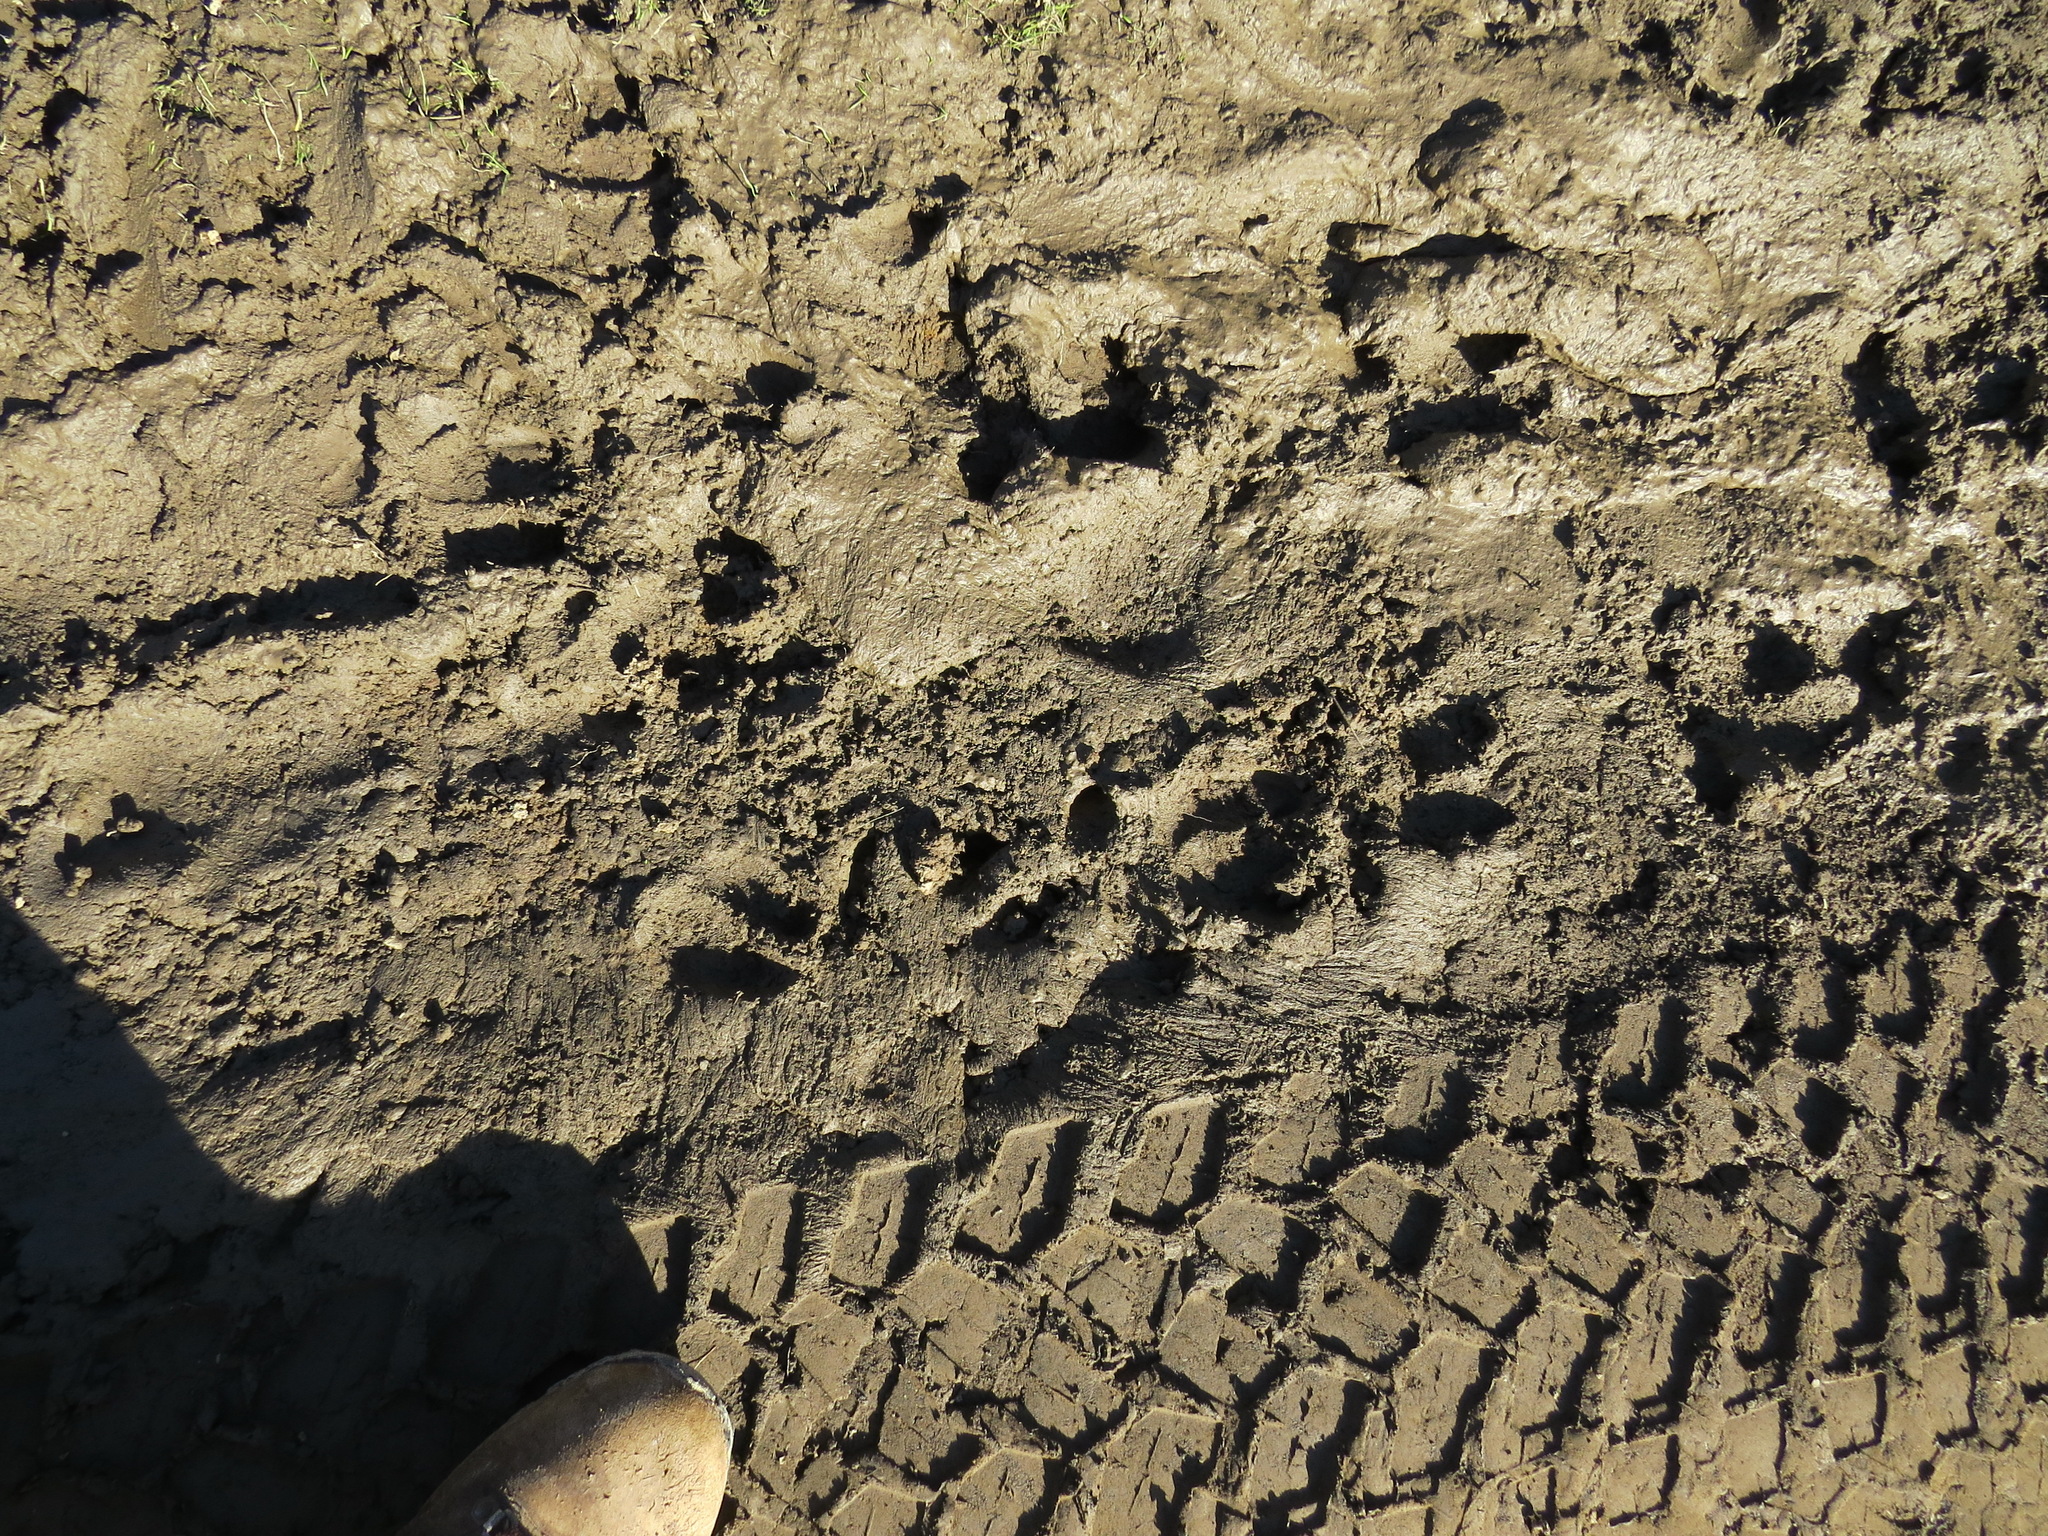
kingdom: Animalia
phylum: Chordata
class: Mammalia
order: Artiodactyla
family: Suidae
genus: Sus
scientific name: Sus scrofa
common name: Wild boar
